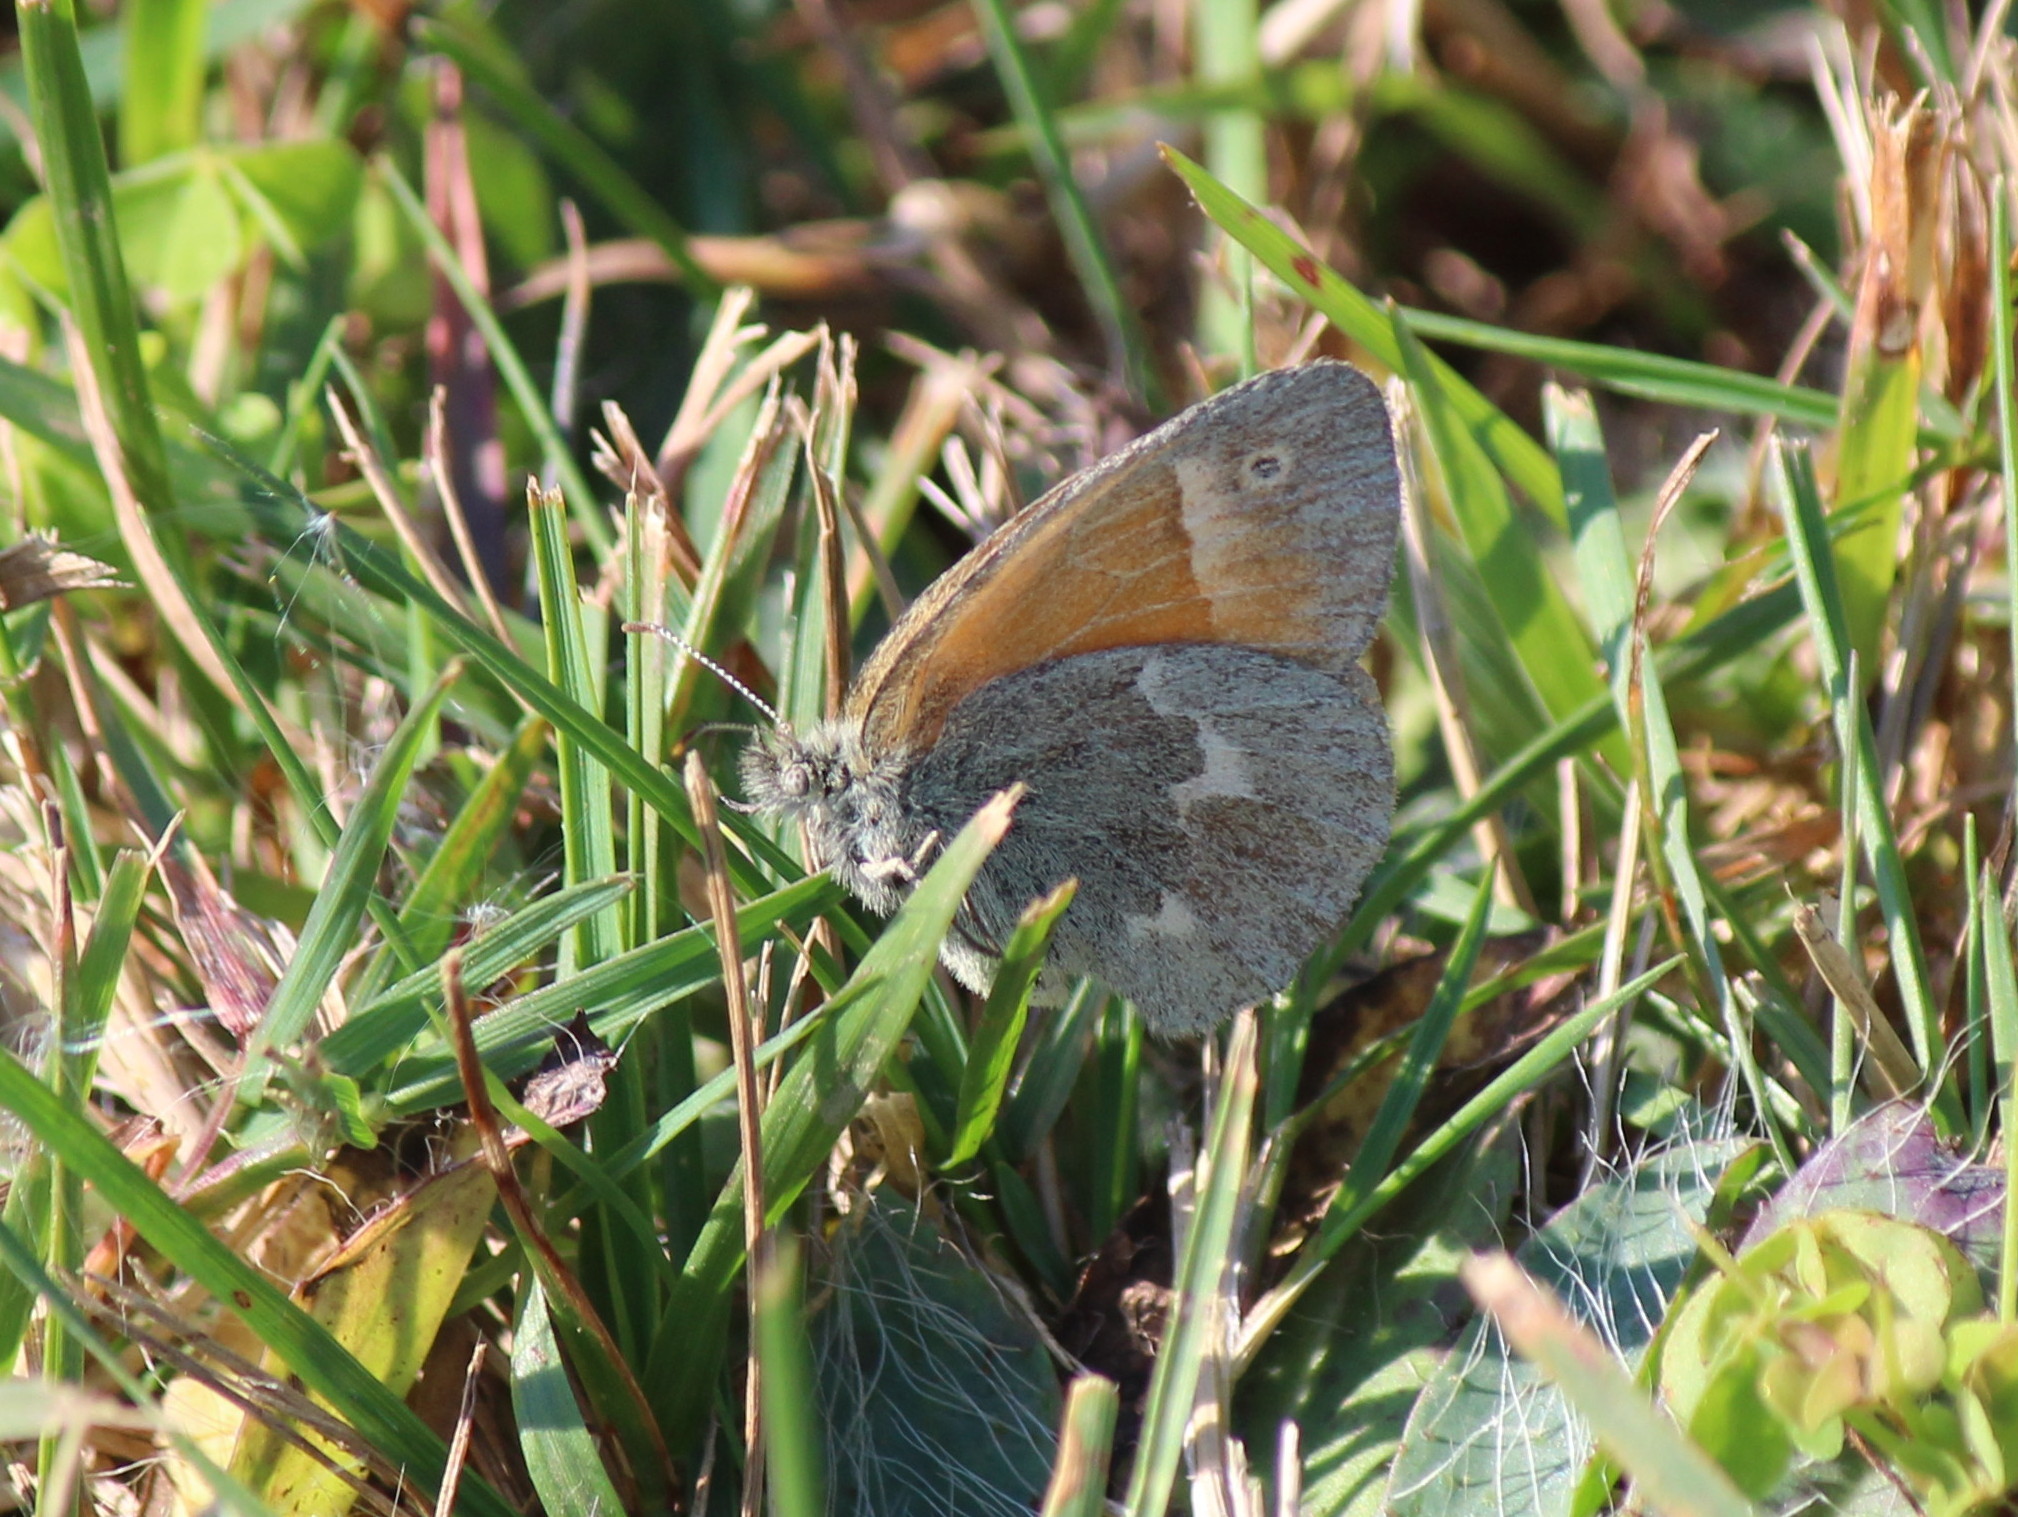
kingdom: Animalia
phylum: Arthropoda
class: Insecta
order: Lepidoptera
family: Nymphalidae
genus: Coenonympha
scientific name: Coenonympha california
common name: Common ringlet
